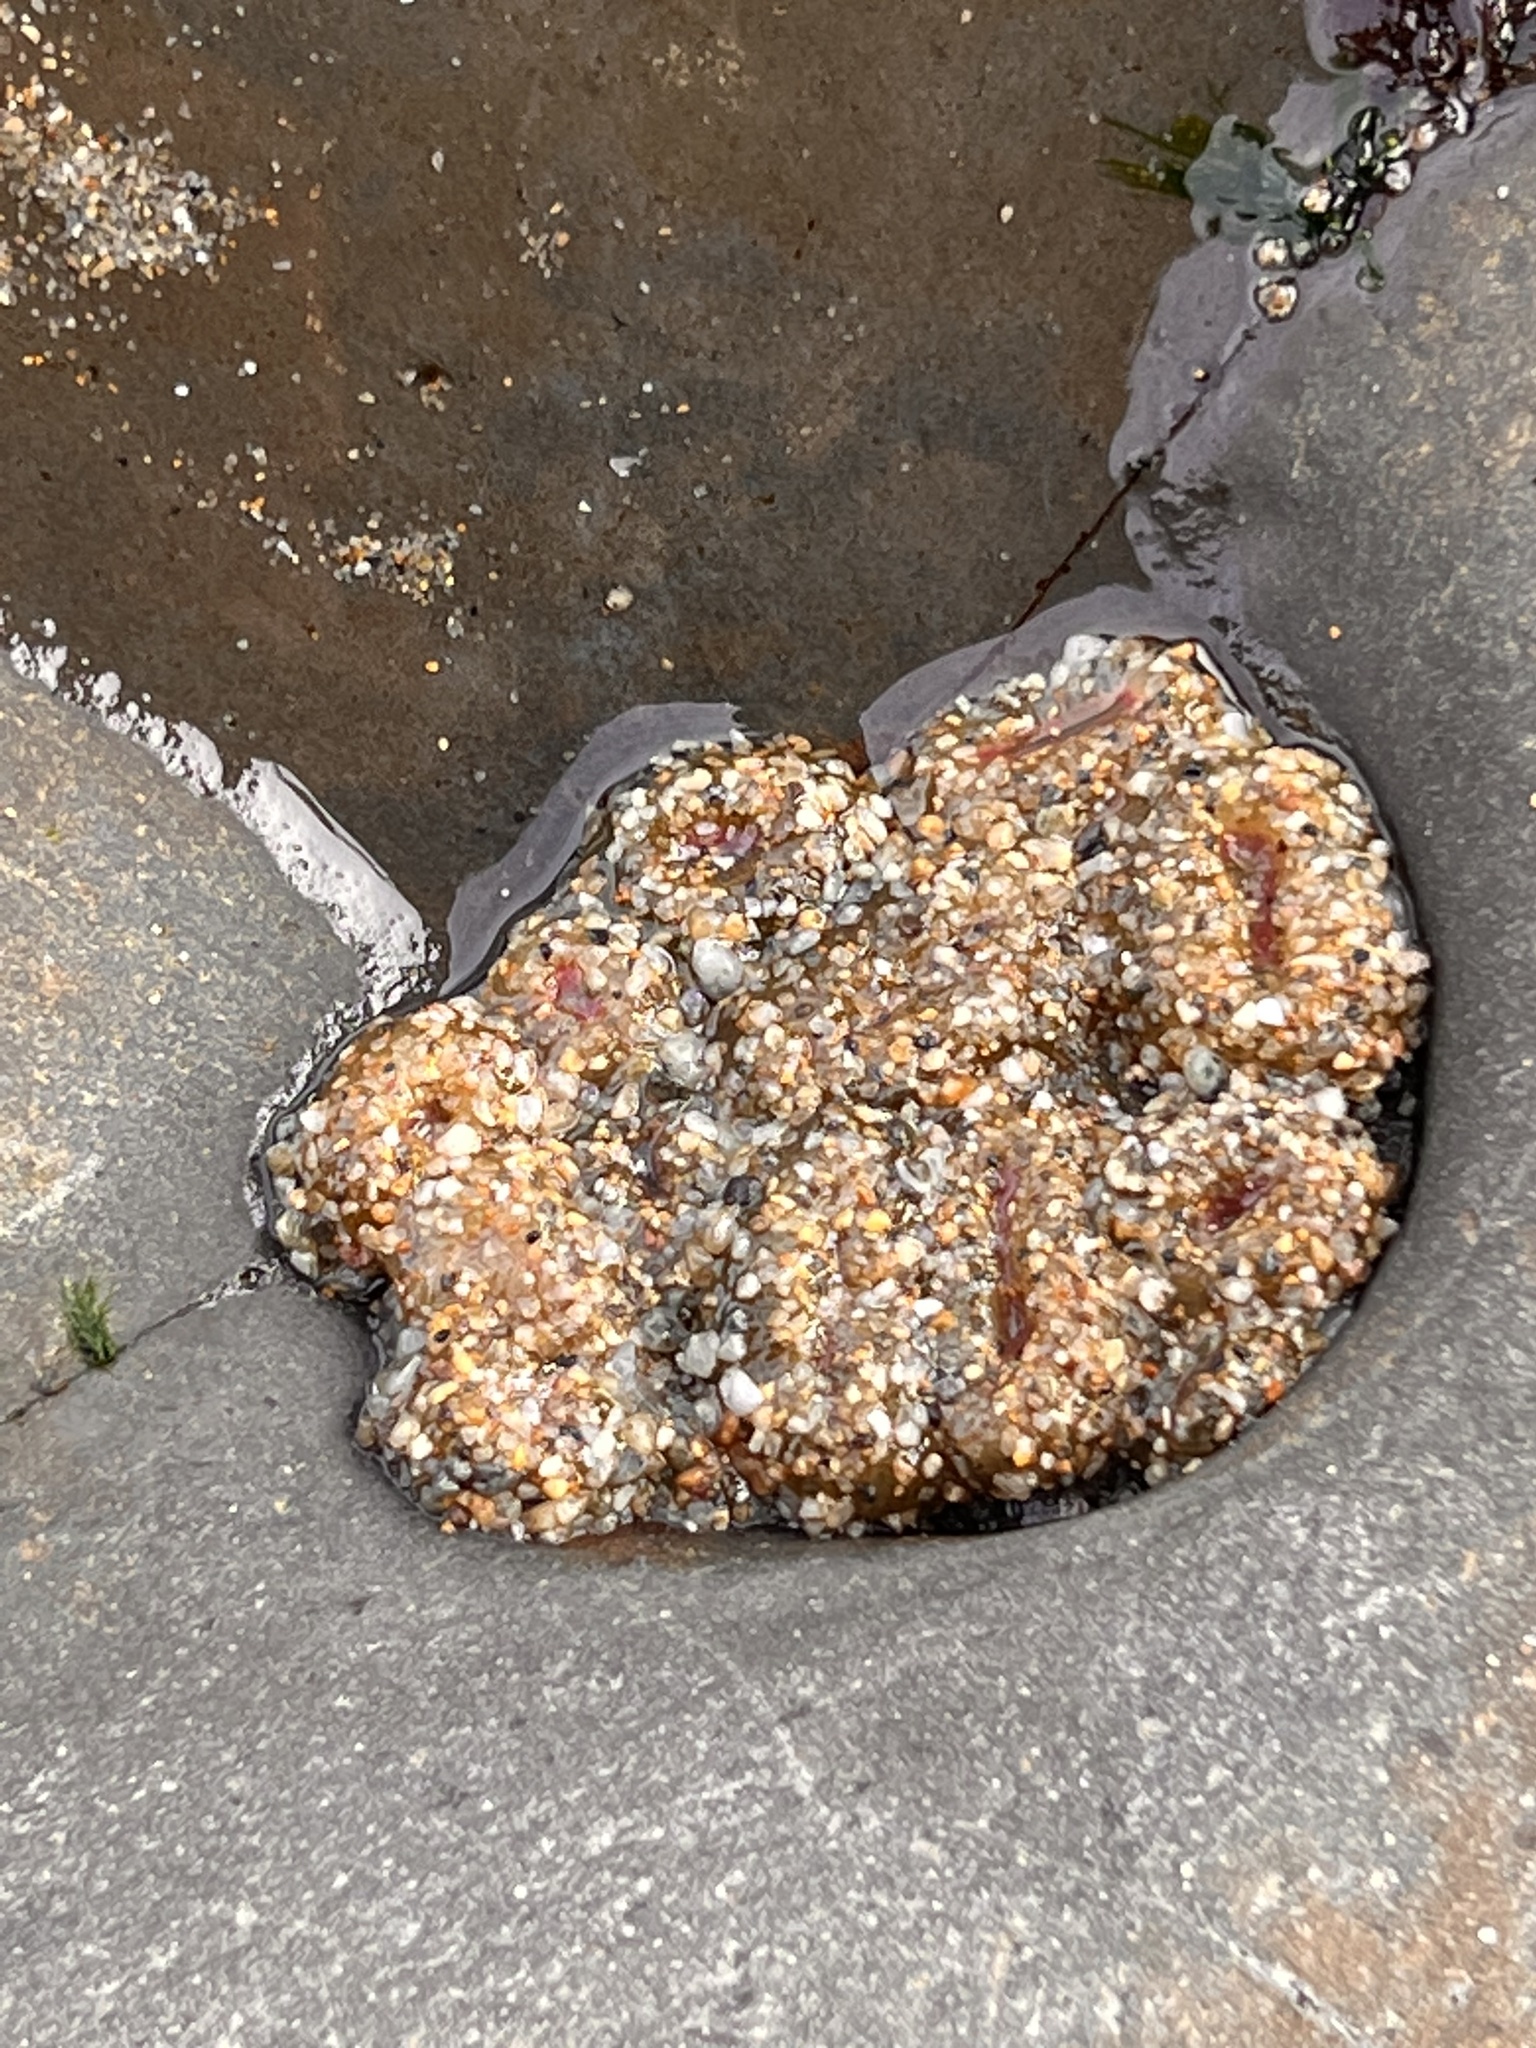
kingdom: Animalia
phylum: Cnidaria
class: Anthozoa
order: Actiniaria
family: Actiniidae
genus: Anthopleura
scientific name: Anthopleura elegantissima
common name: Clonal anemone
